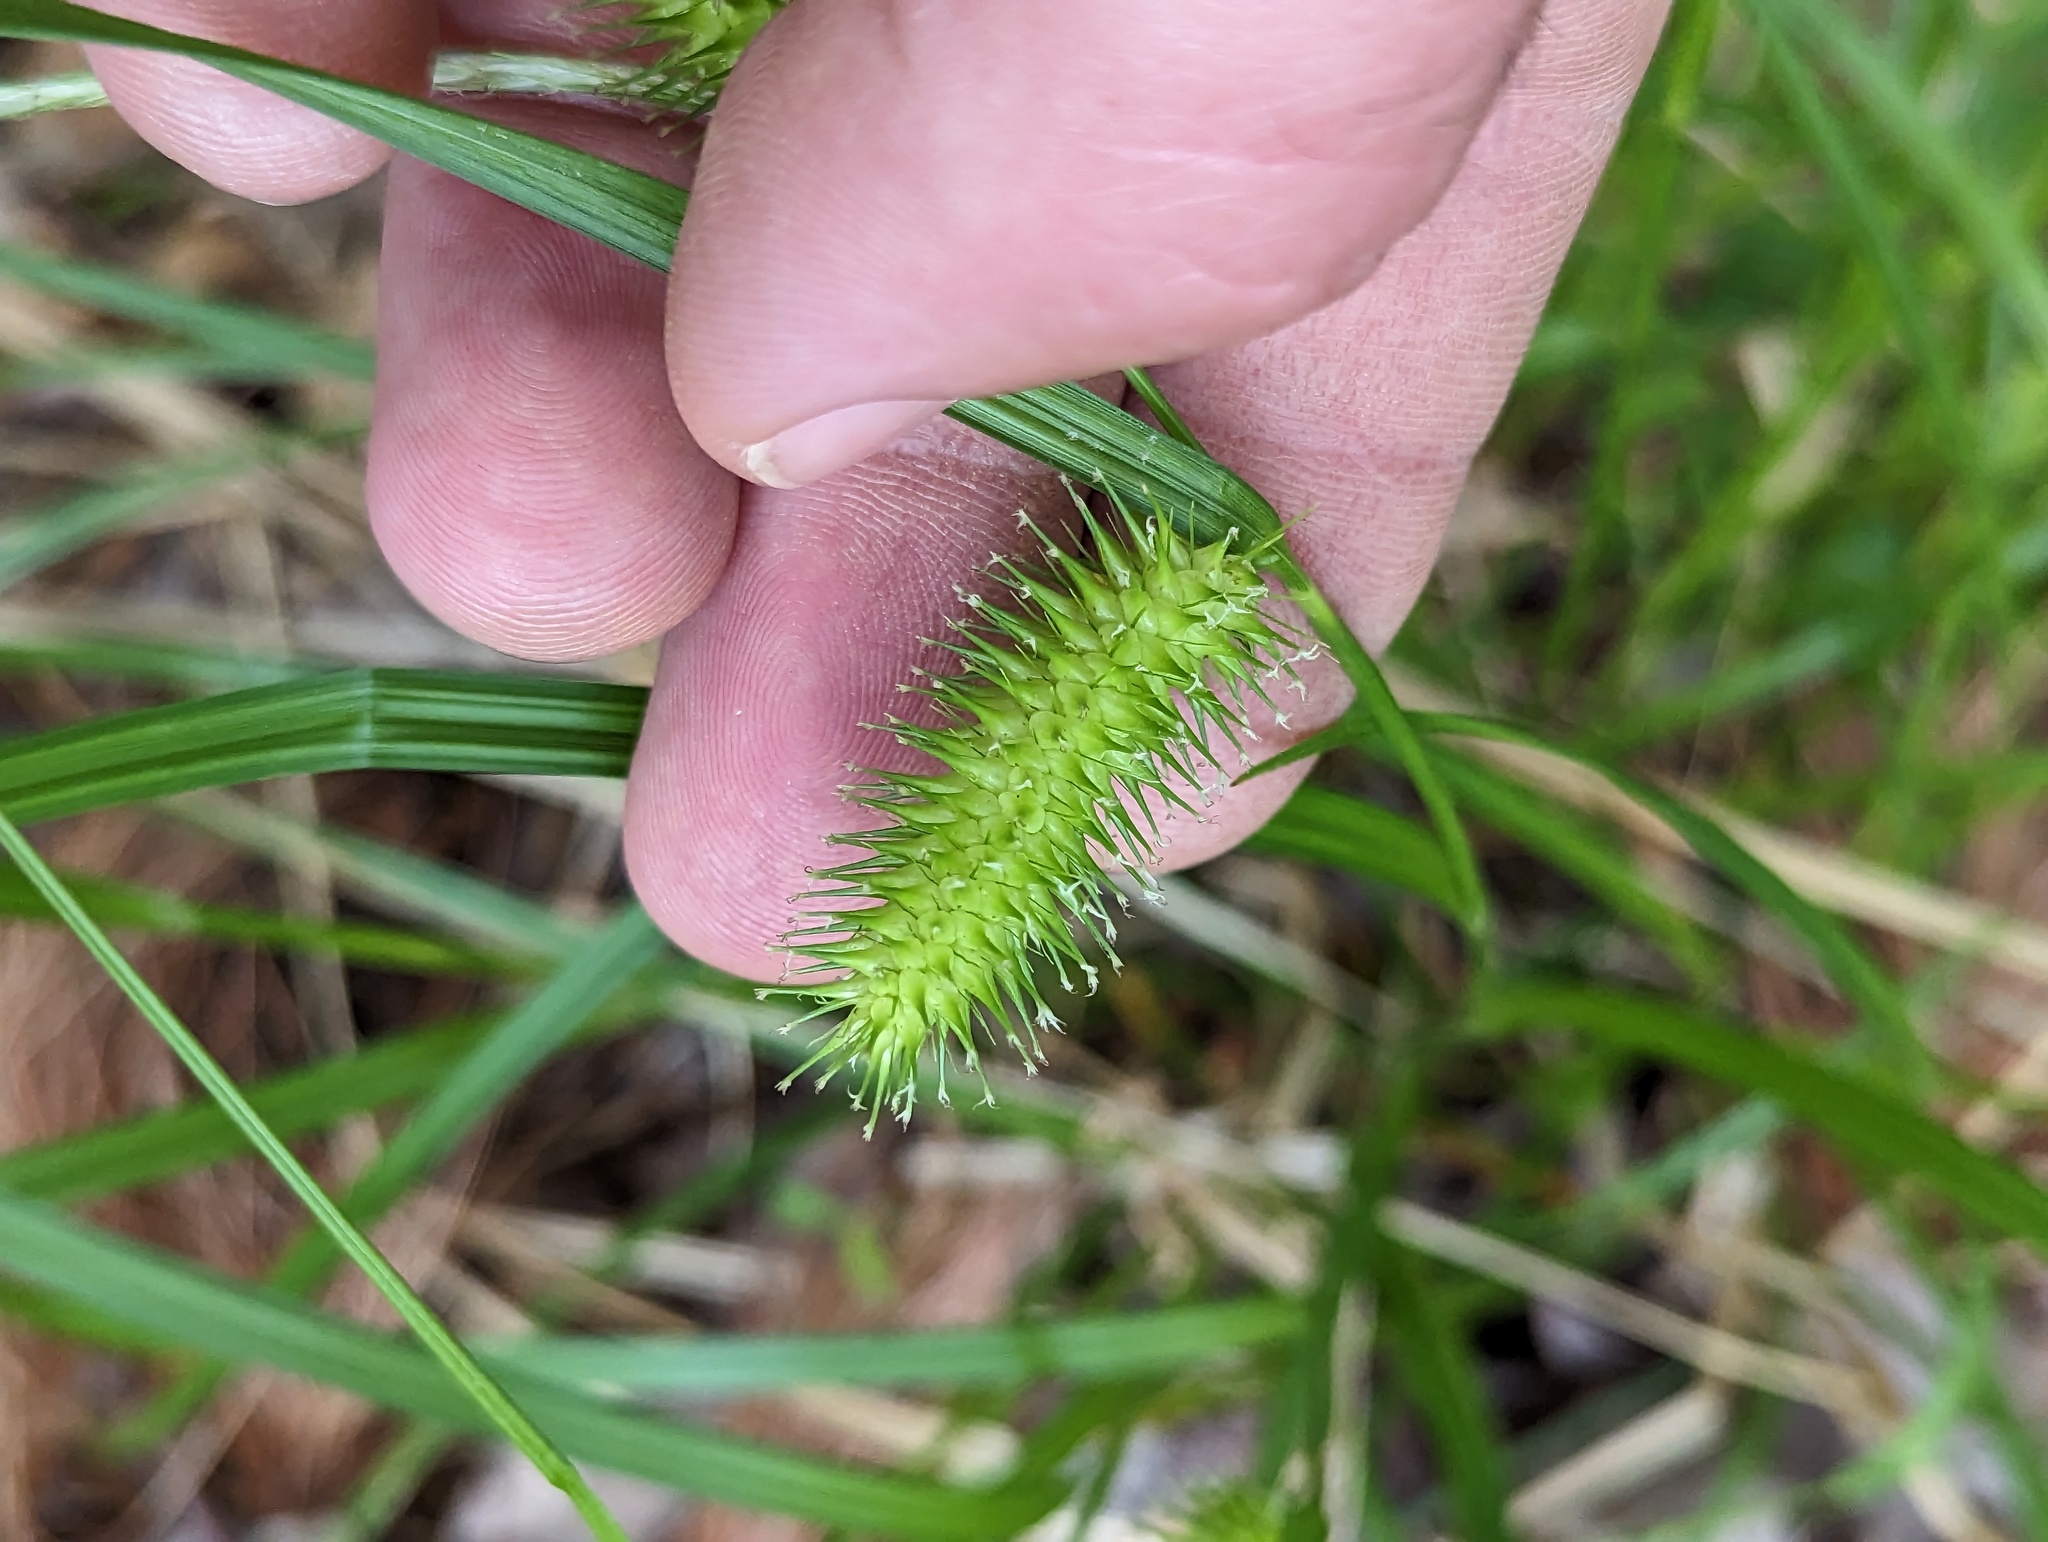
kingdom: Plantae
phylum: Tracheophyta
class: Liliopsida
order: Poales
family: Cyperaceae
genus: Carex
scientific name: Carex lurida
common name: Sallow sedge
